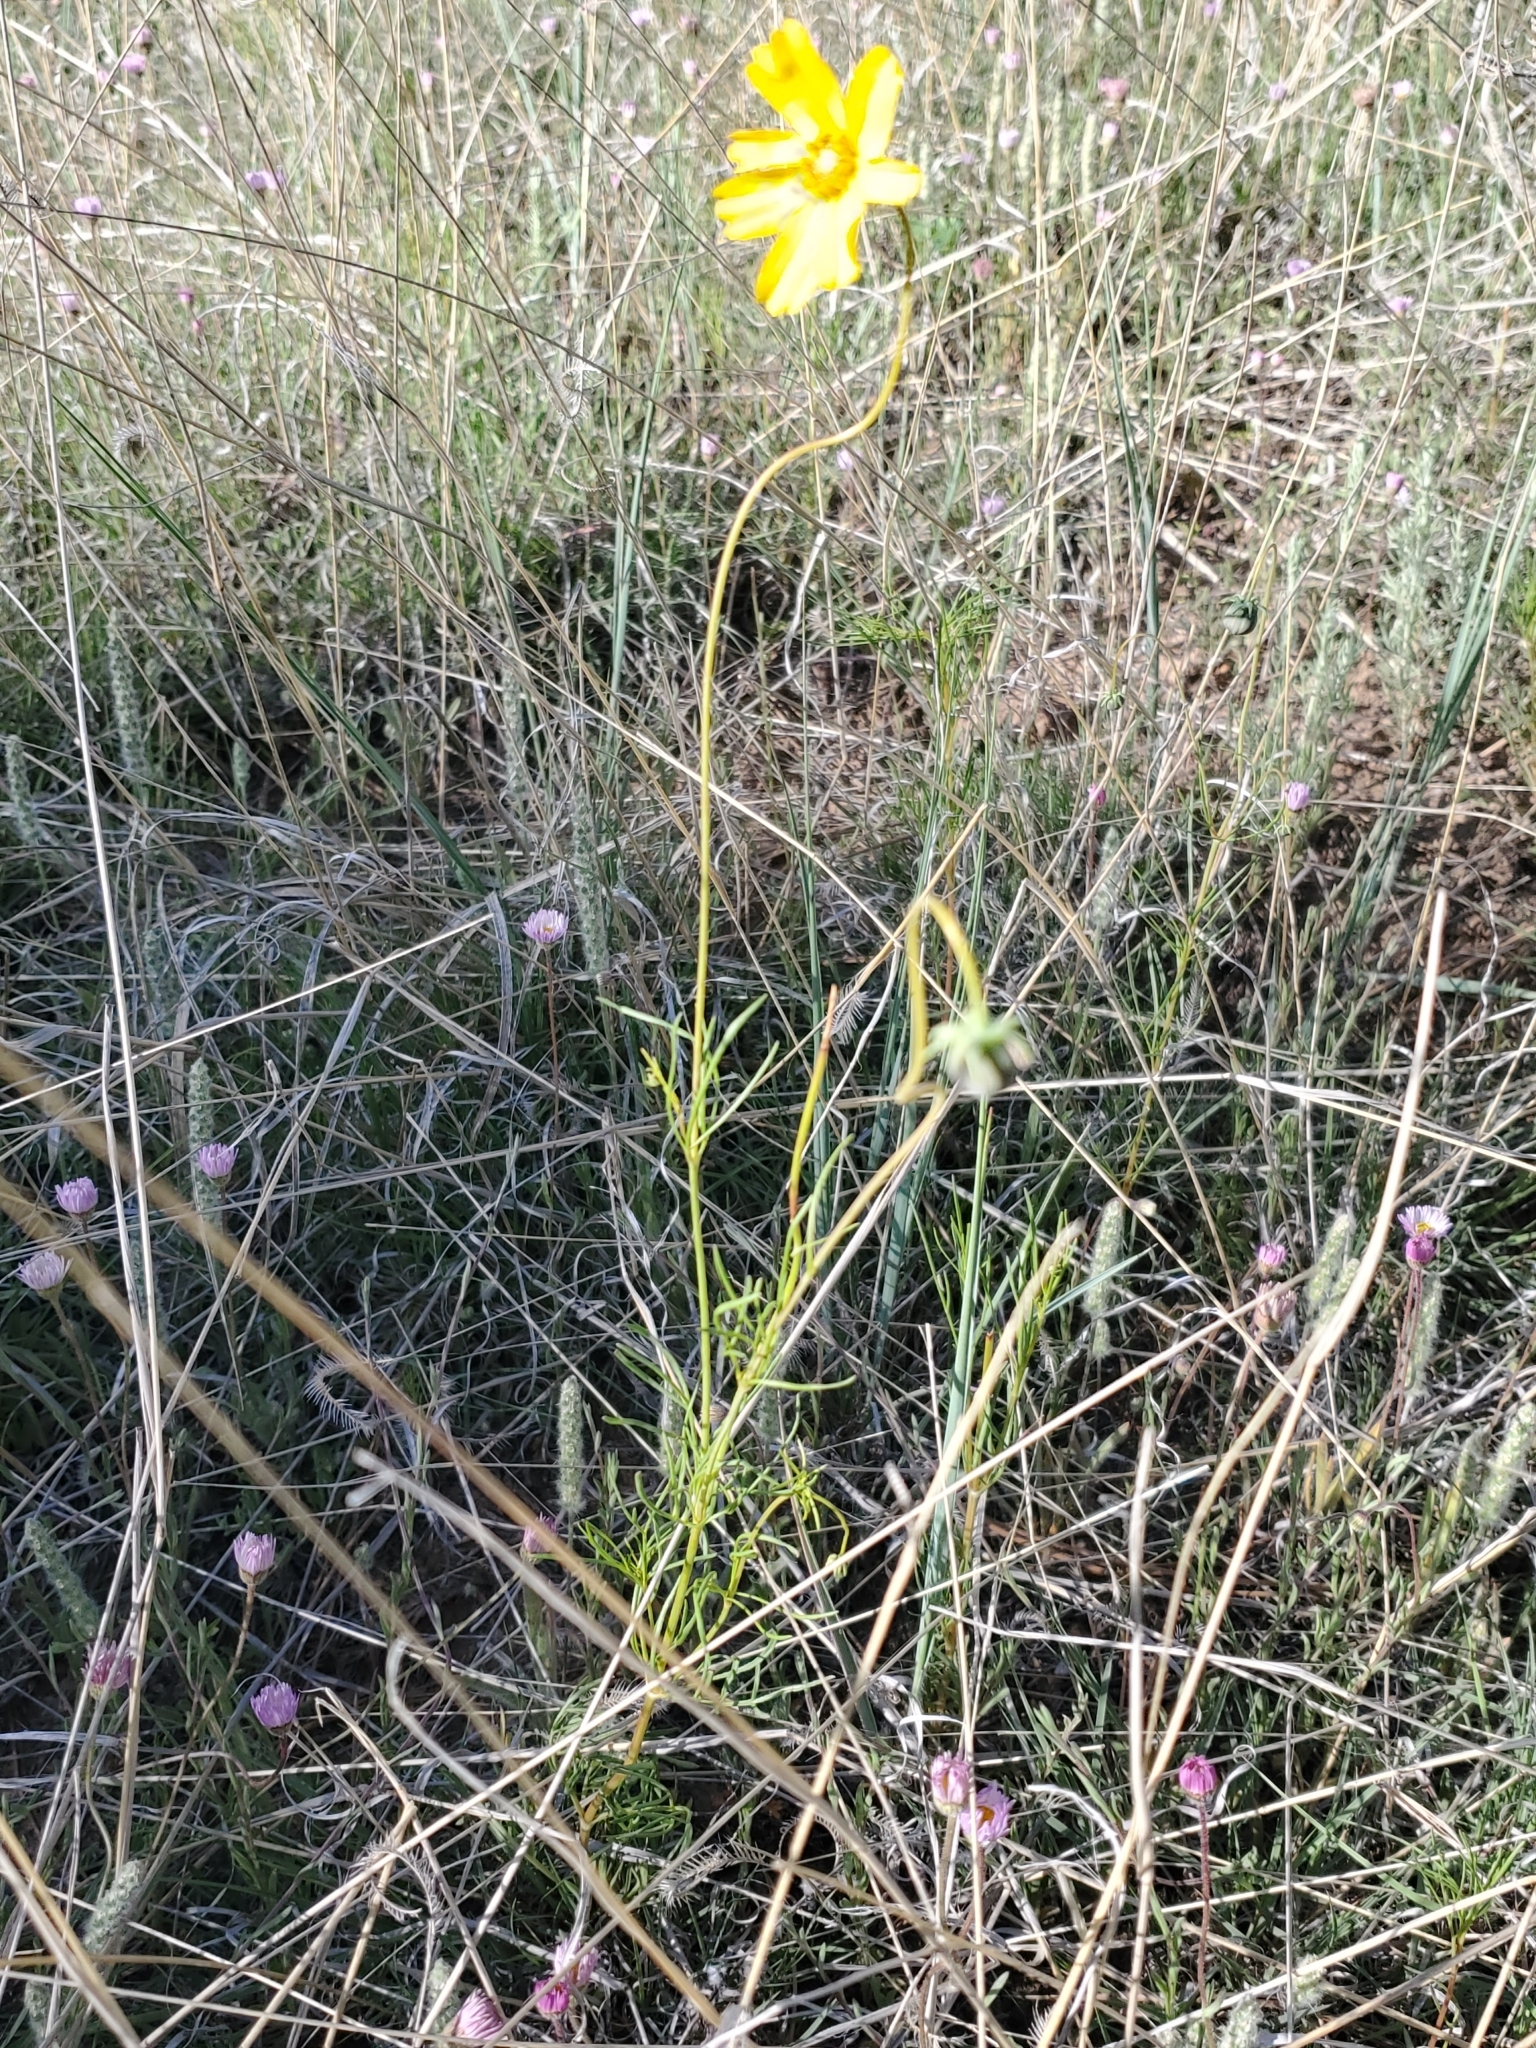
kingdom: Plantae
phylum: Tracheophyta
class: Magnoliopsida
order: Asterales
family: Asteraceae
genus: Thelesperma
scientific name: Thelesperma filifolium
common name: Stiff greenthread
